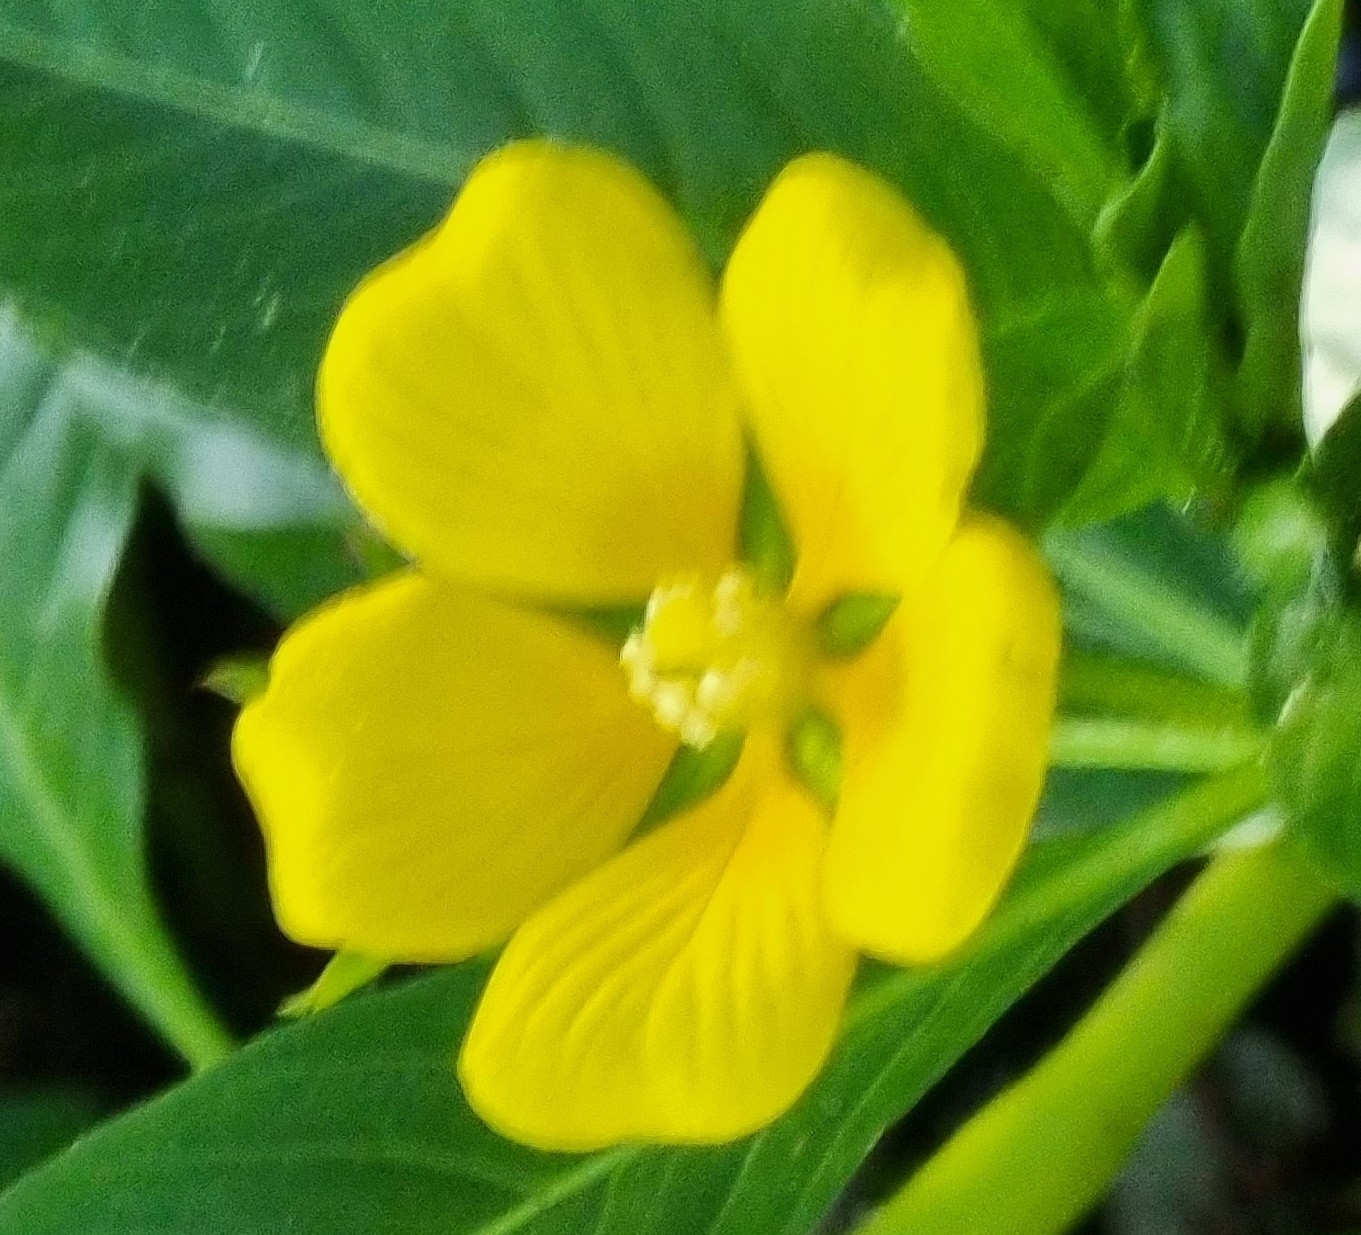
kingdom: Plantae
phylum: Tracheophyta
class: Magnoliopsida
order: Myrtales
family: Onagraceae
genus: Ludwigia
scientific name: Ludwigia peploides
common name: Floating primrose-willow
